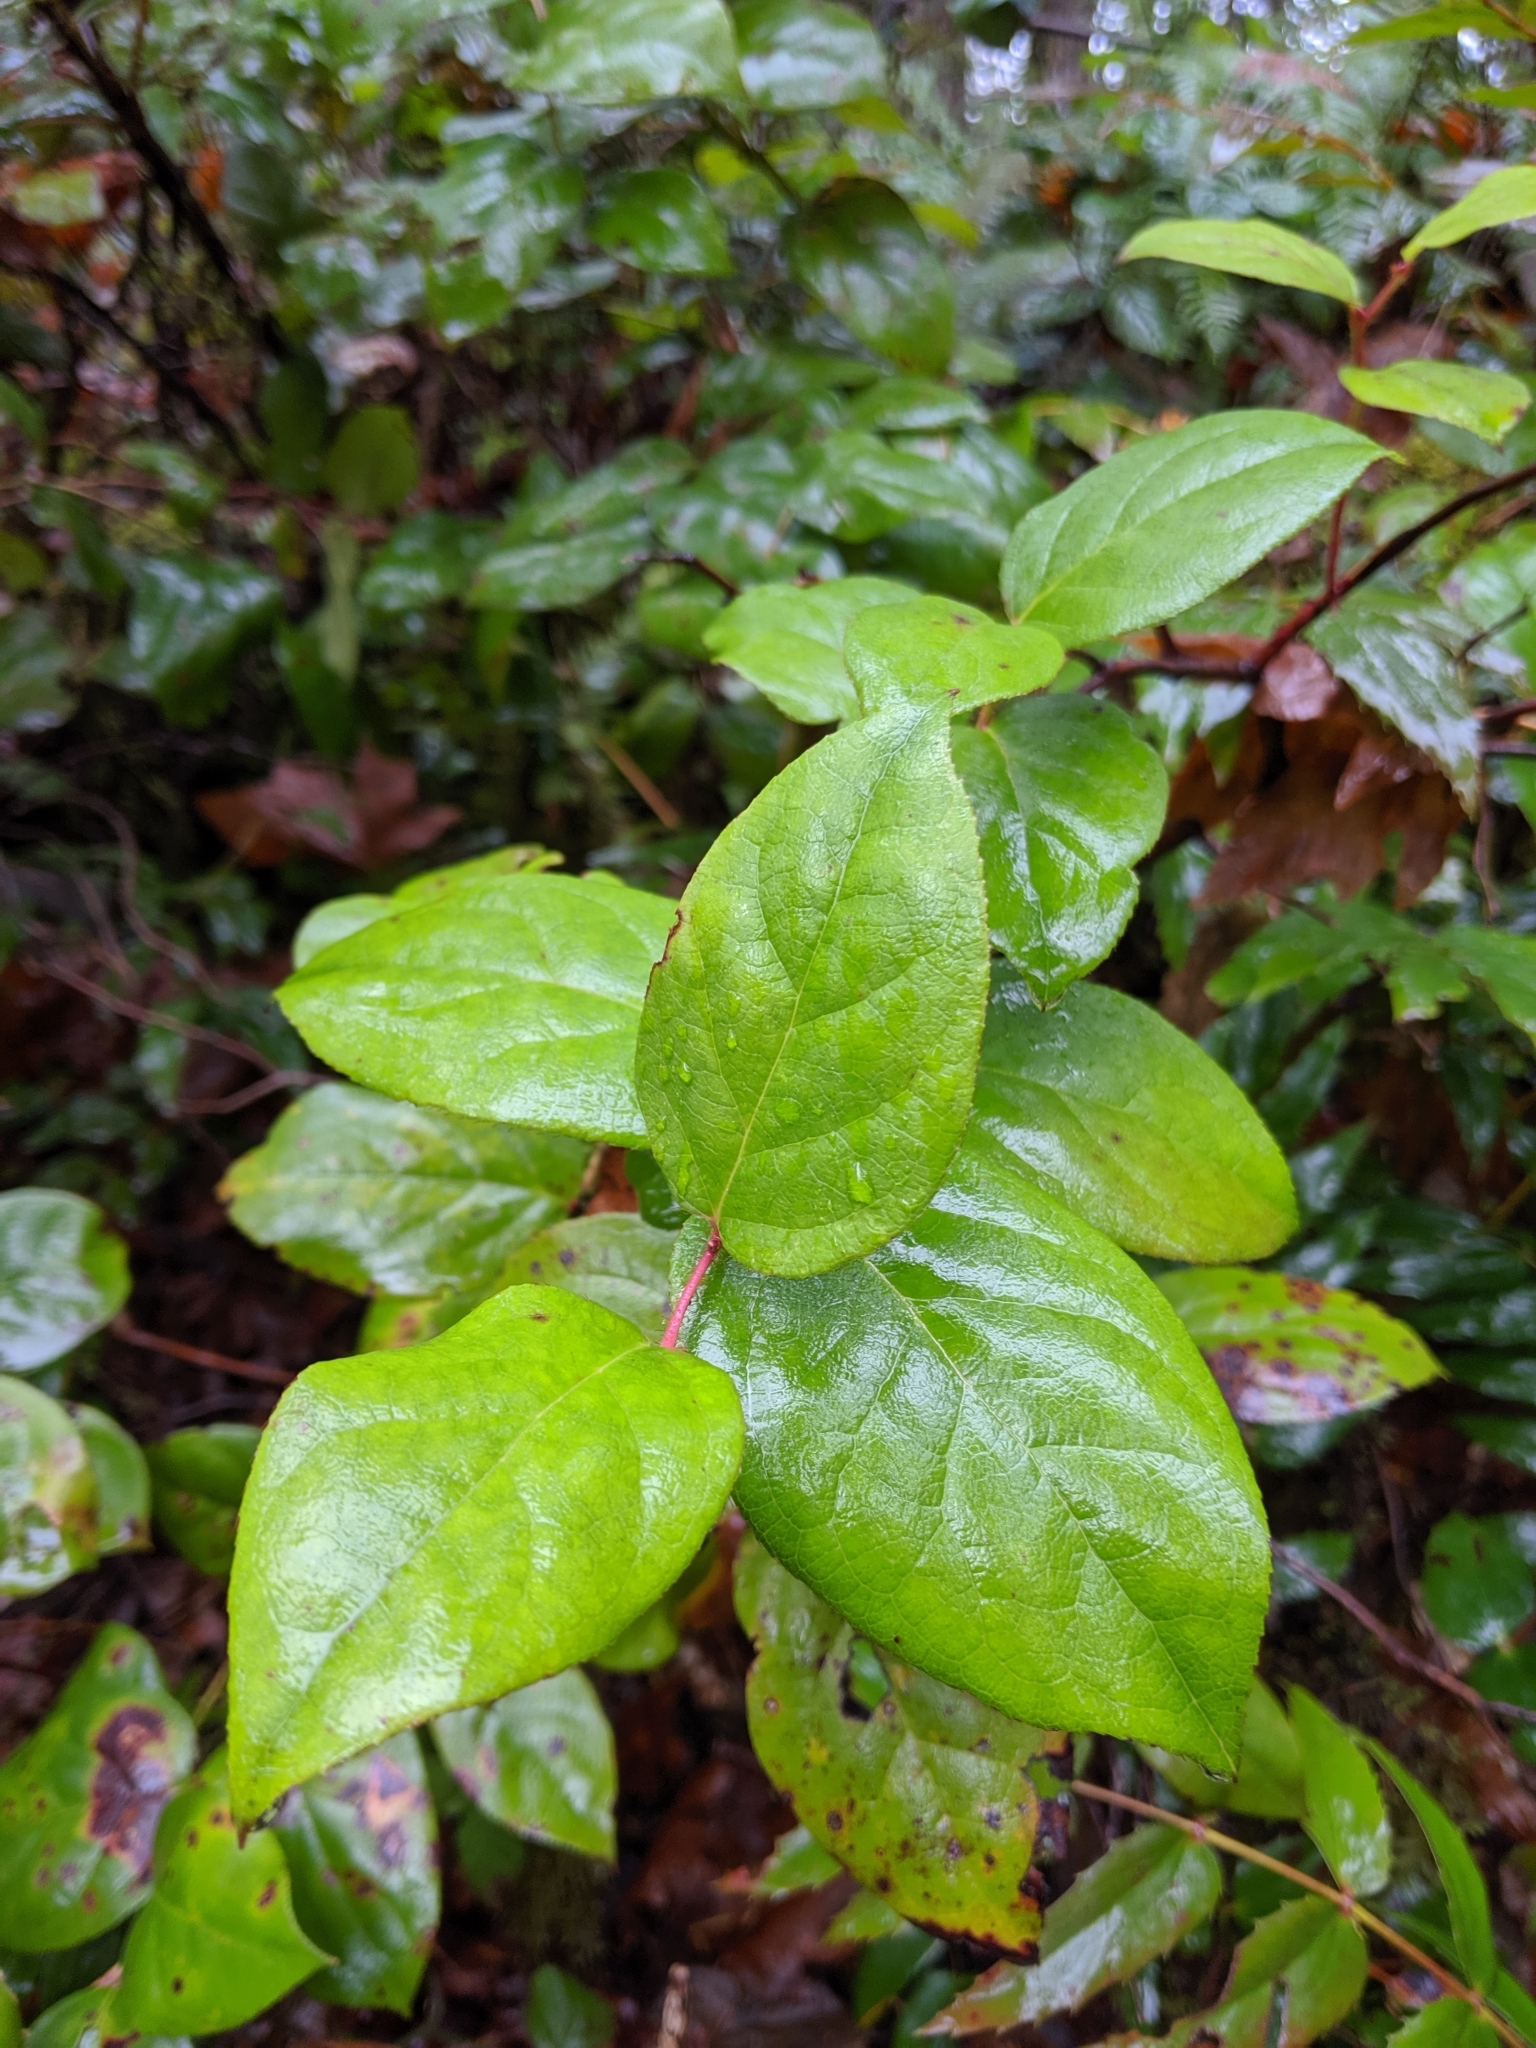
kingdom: Plantae
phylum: Tracheophyta
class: Magnoliopsida
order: Ericales
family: Ericaceae
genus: Gaultheria
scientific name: Gaultheria shallon
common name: Shallon
